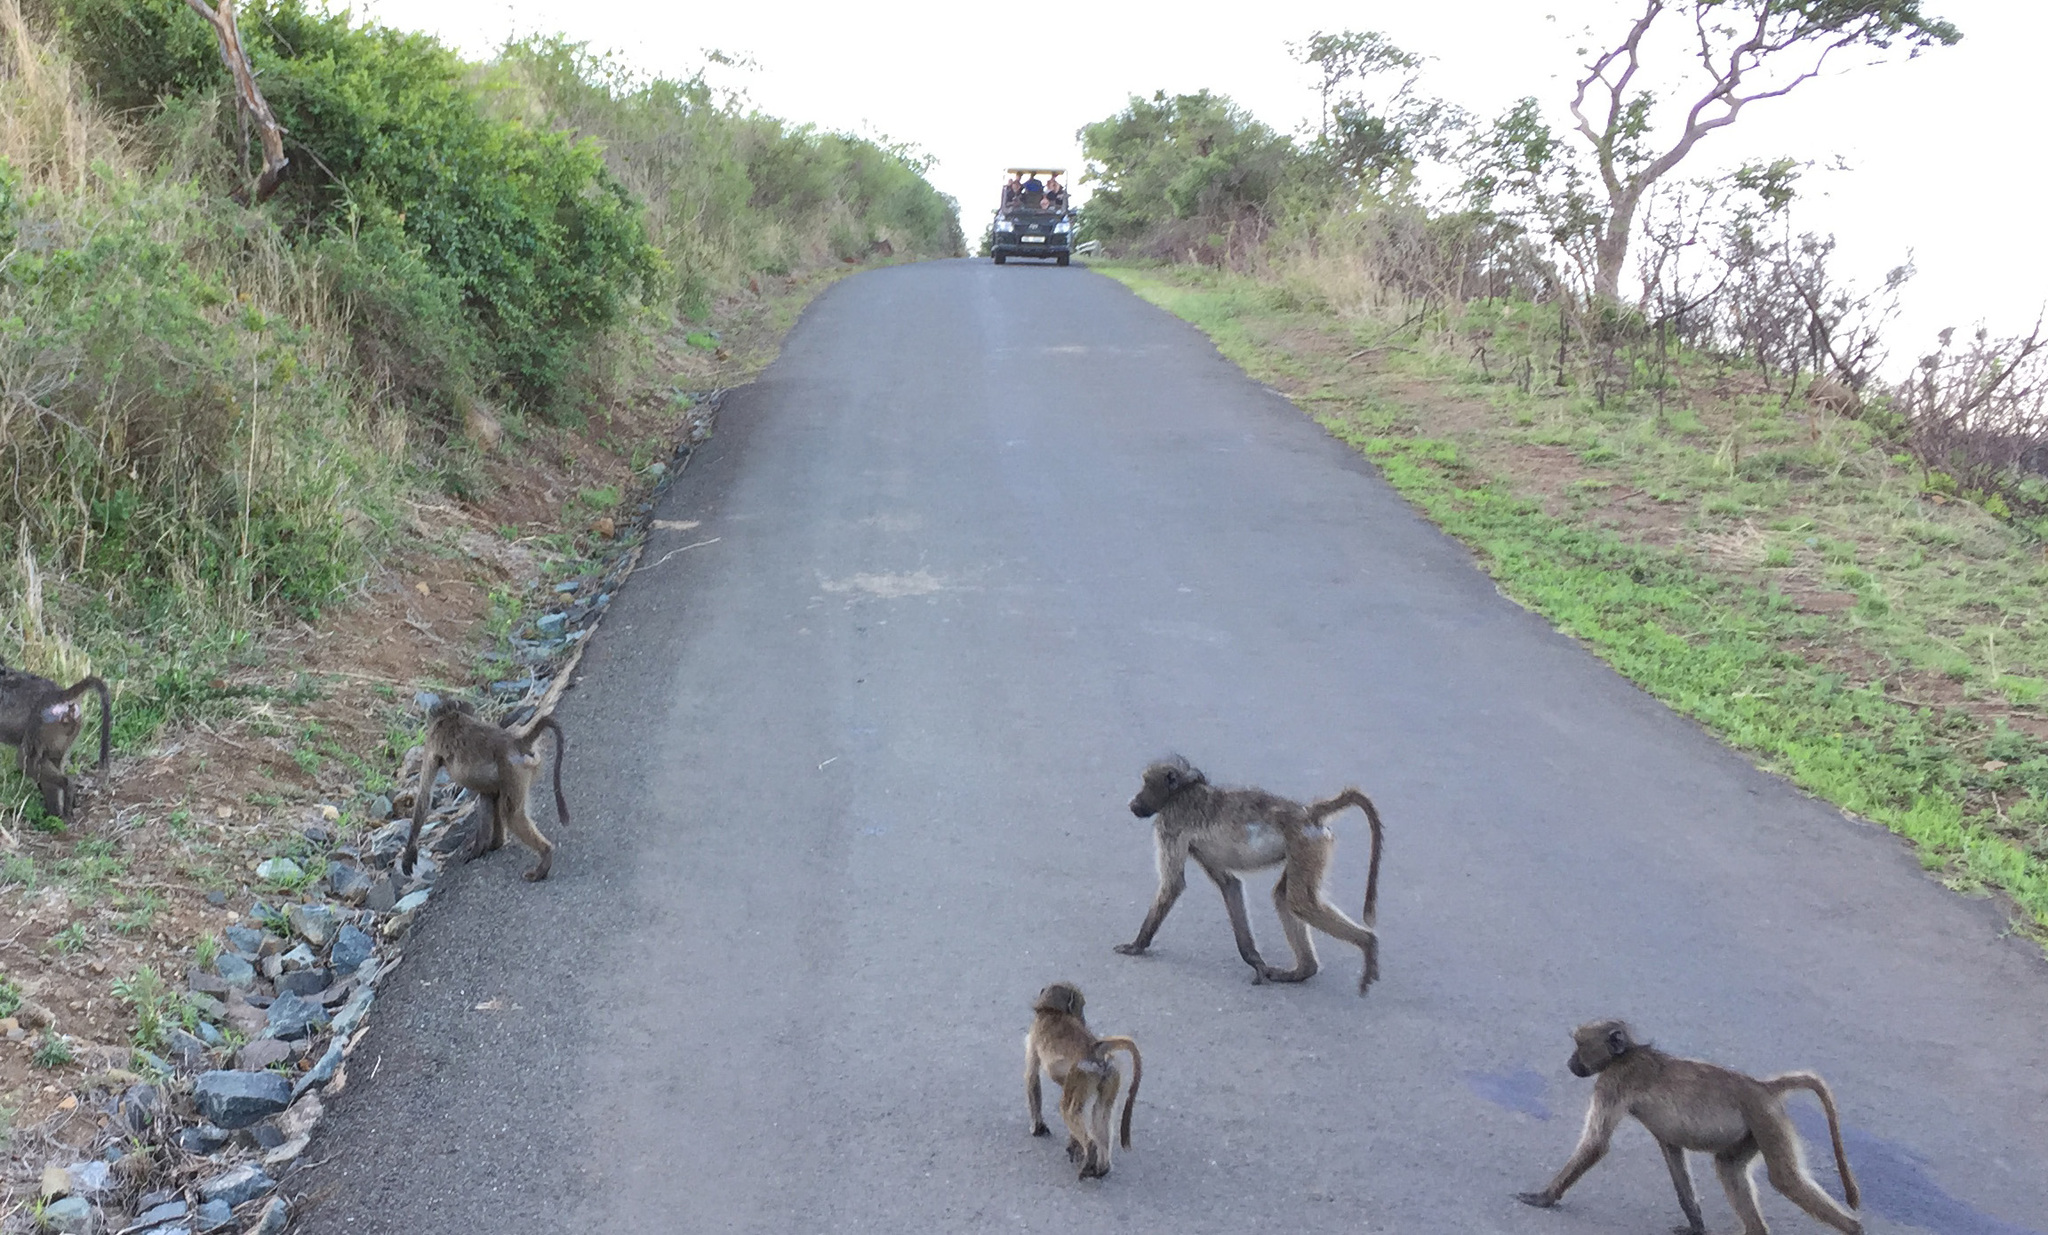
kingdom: Animalia
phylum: Chordata
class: Mammalia
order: Primates
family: Cercopithecidae
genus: Papio
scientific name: Papio ursinus
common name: Chacma baboon
